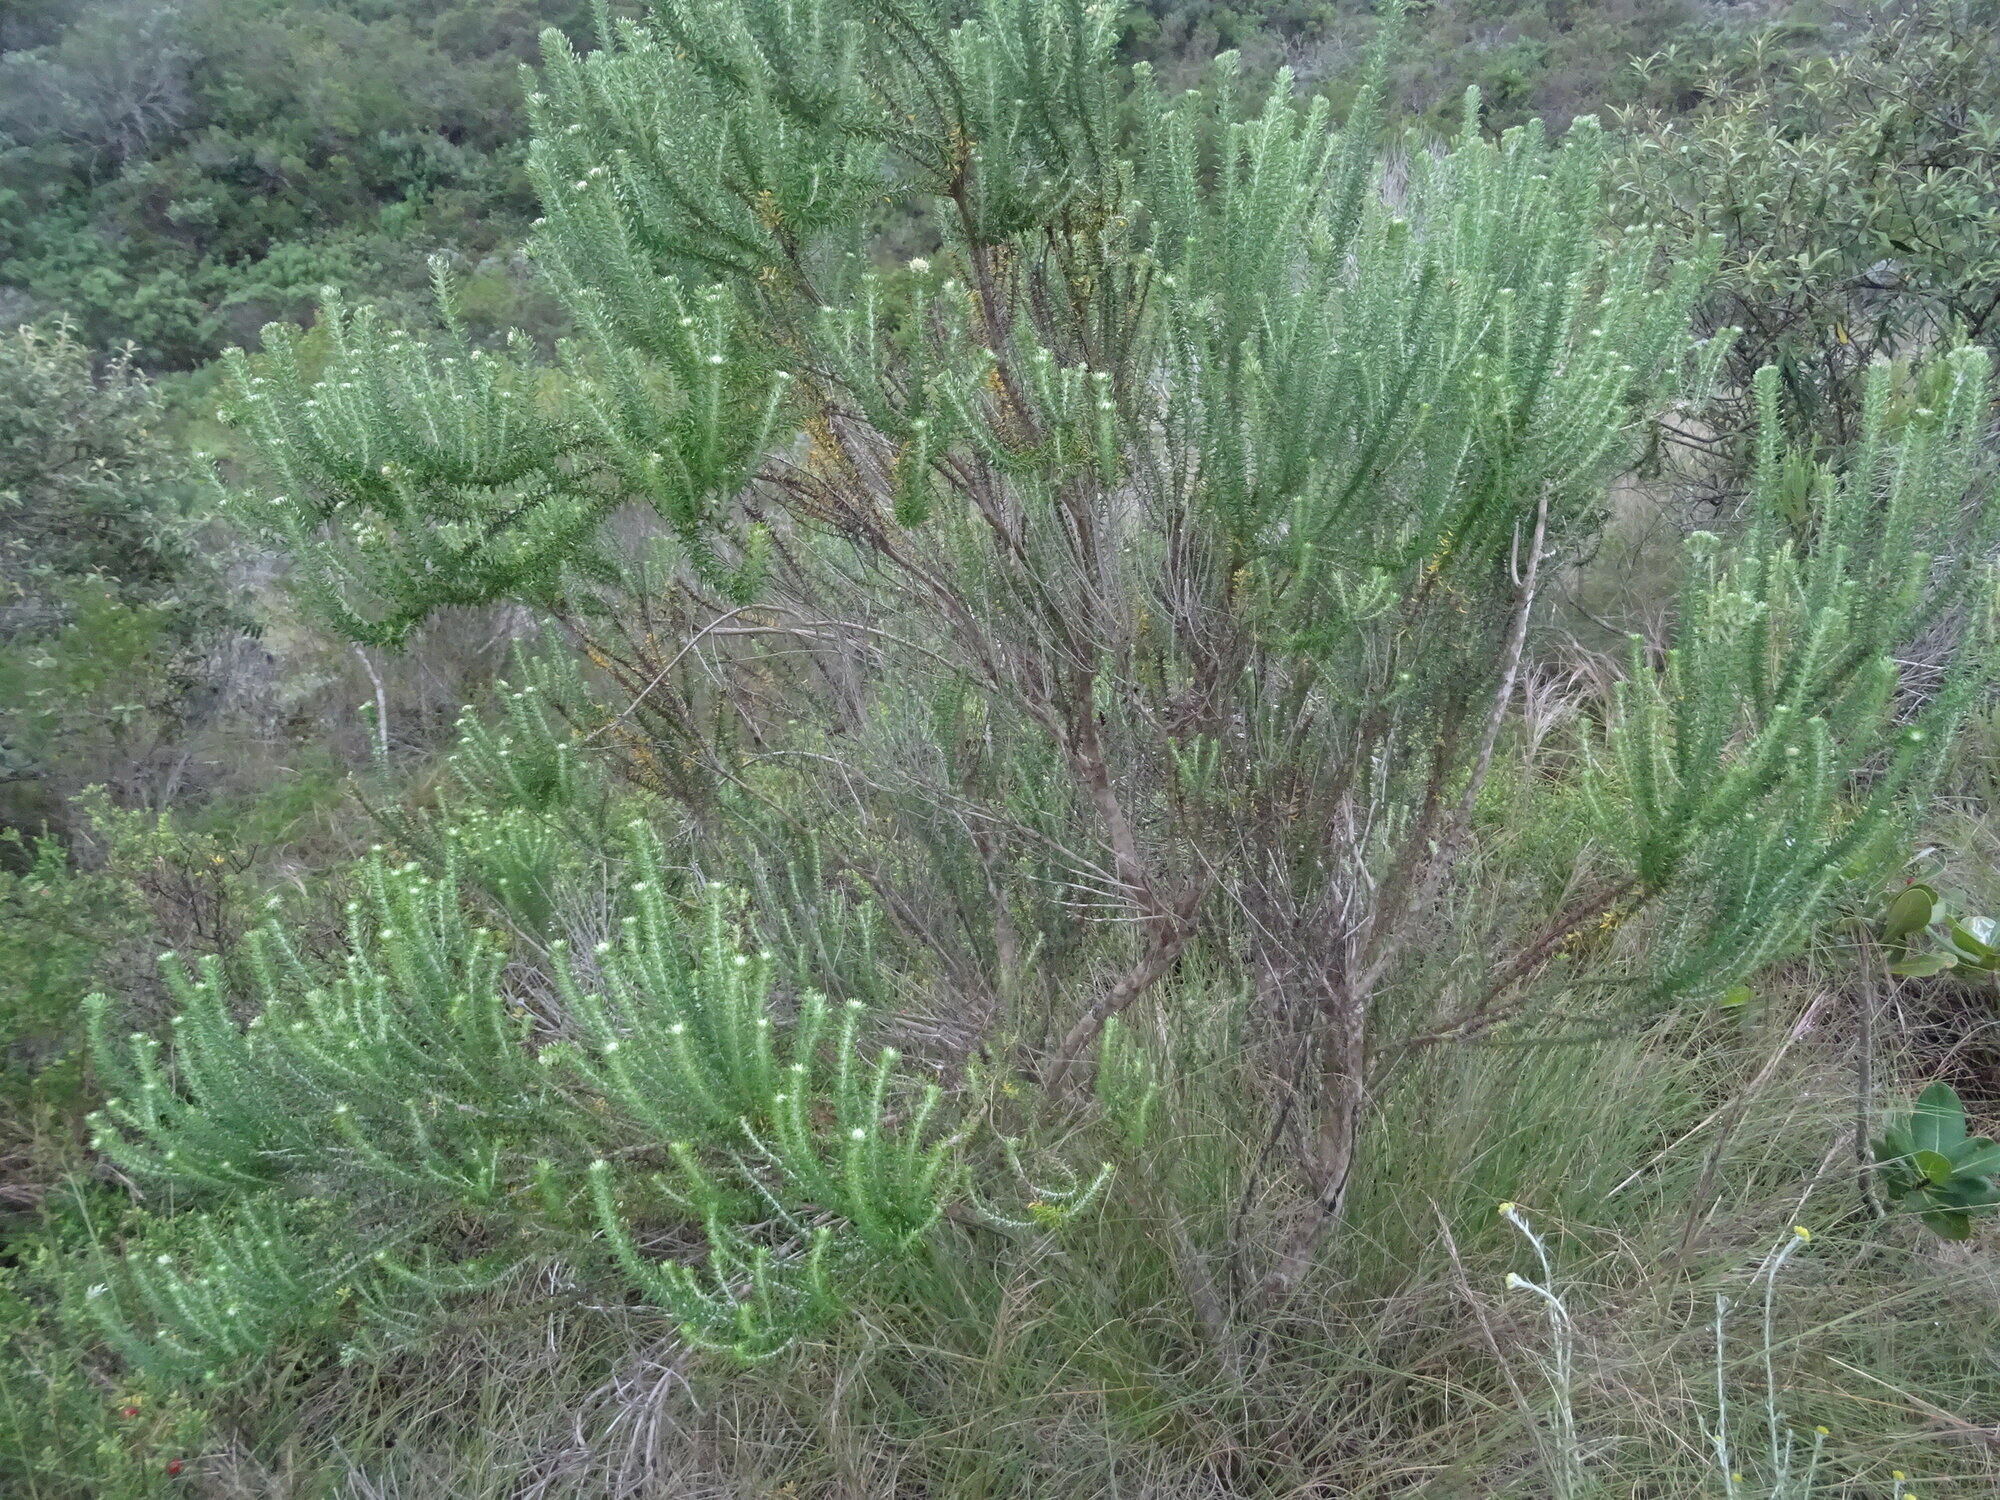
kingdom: Plantae
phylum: Tracheophyta
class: Magnoliopsida
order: Asterales
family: Asteraceae
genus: Metalasia
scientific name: Metalasia muricata
